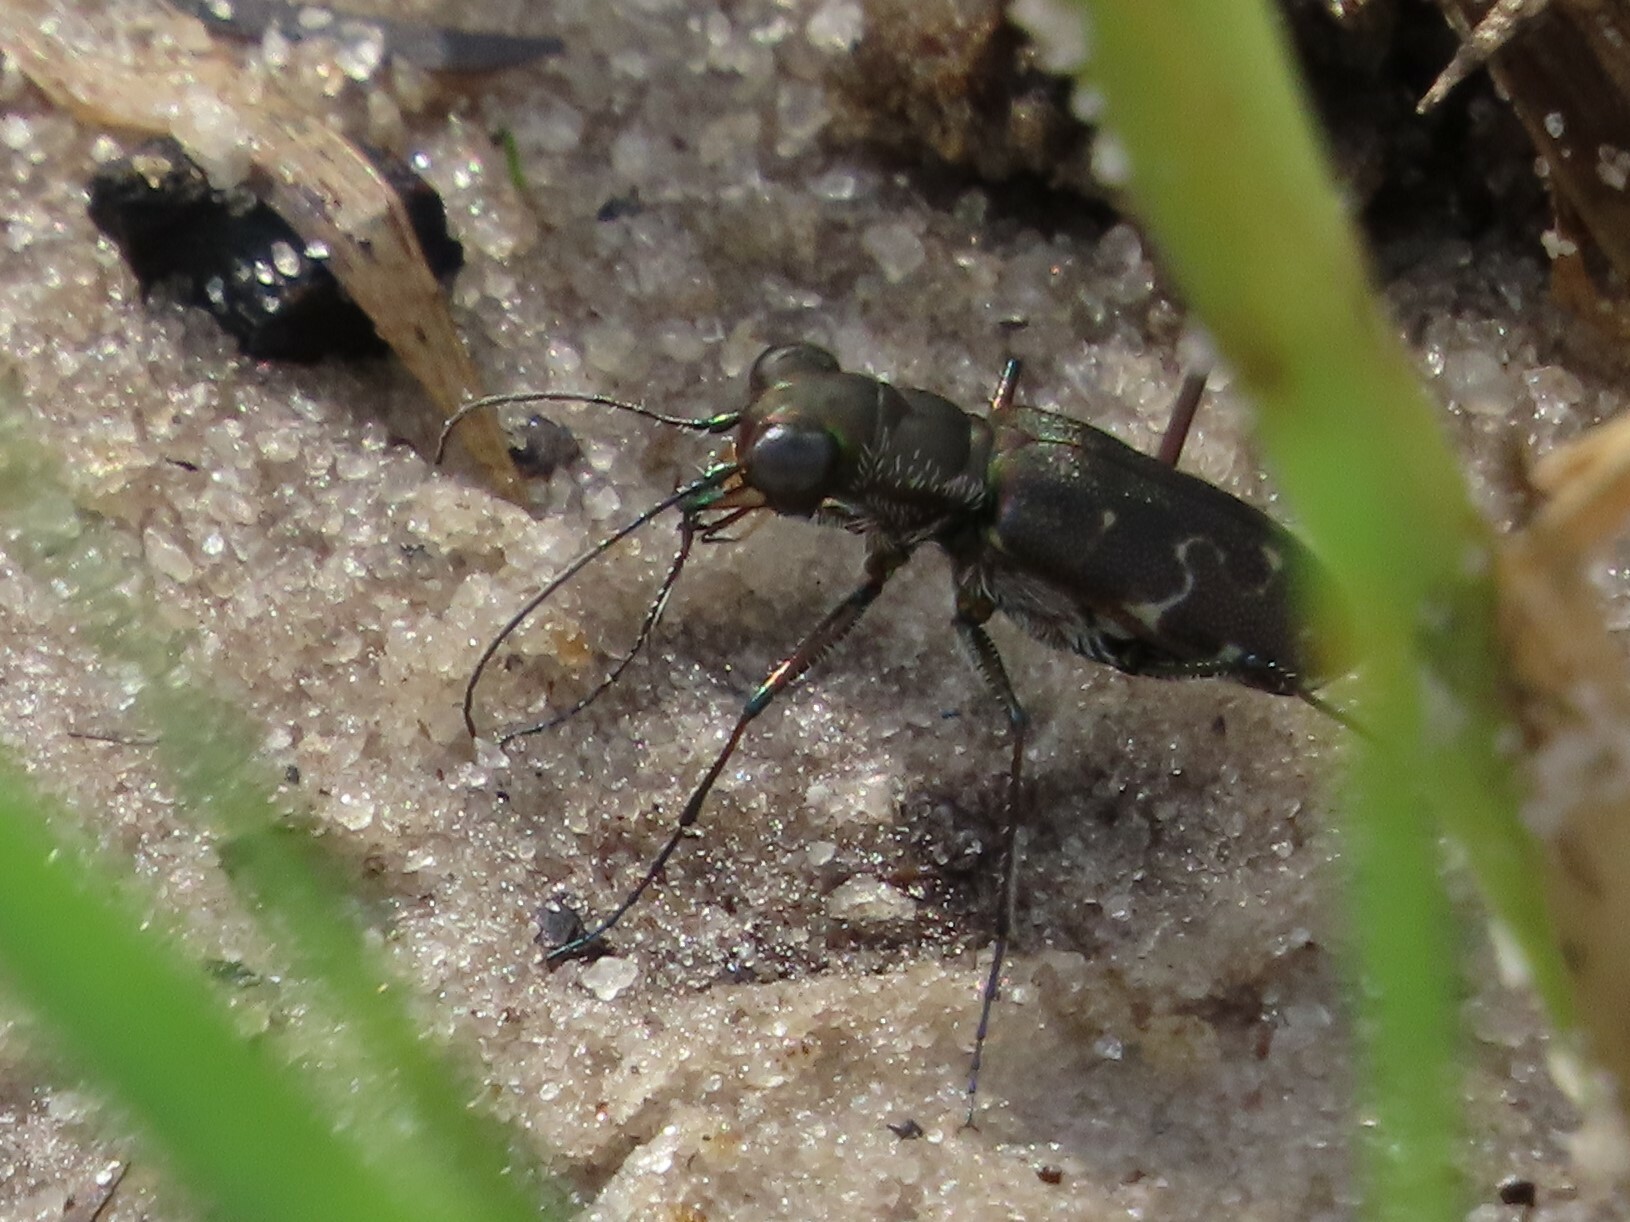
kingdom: Animalia
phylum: Arthropoda
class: Insecta
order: Coleoptera
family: Carabidae
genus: Cicindela
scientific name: Cicindela trifasciata
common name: Mudflat tiger beetle
